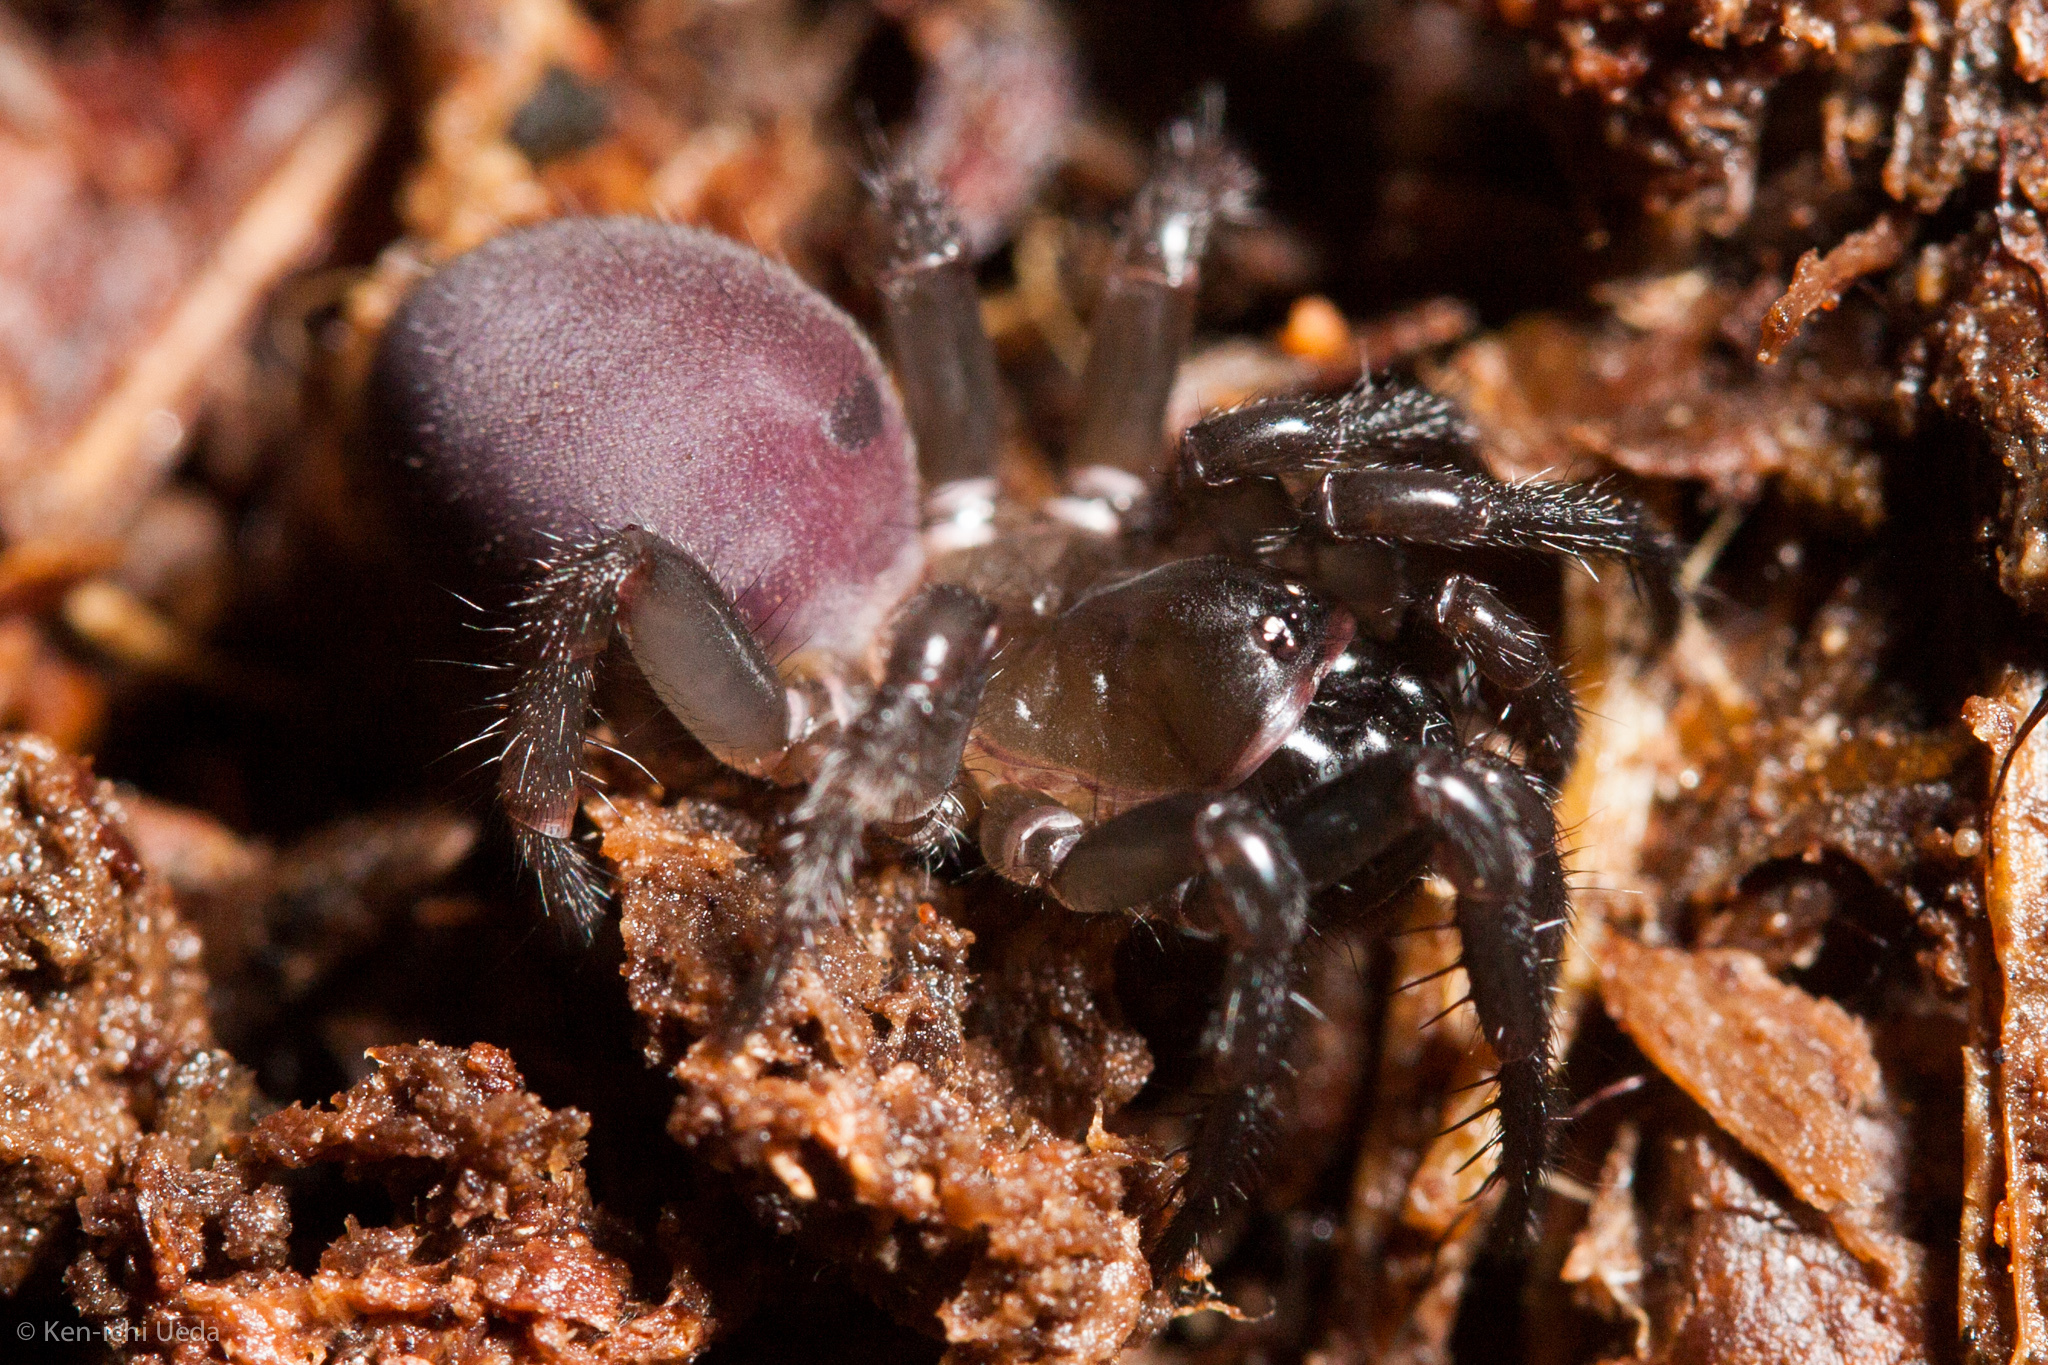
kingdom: Animalia
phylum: Arthropoda
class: Arachnida
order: Araneae
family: Antrodiaetidae
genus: Antrodiaetus
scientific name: Antrodiaetus unicolor
